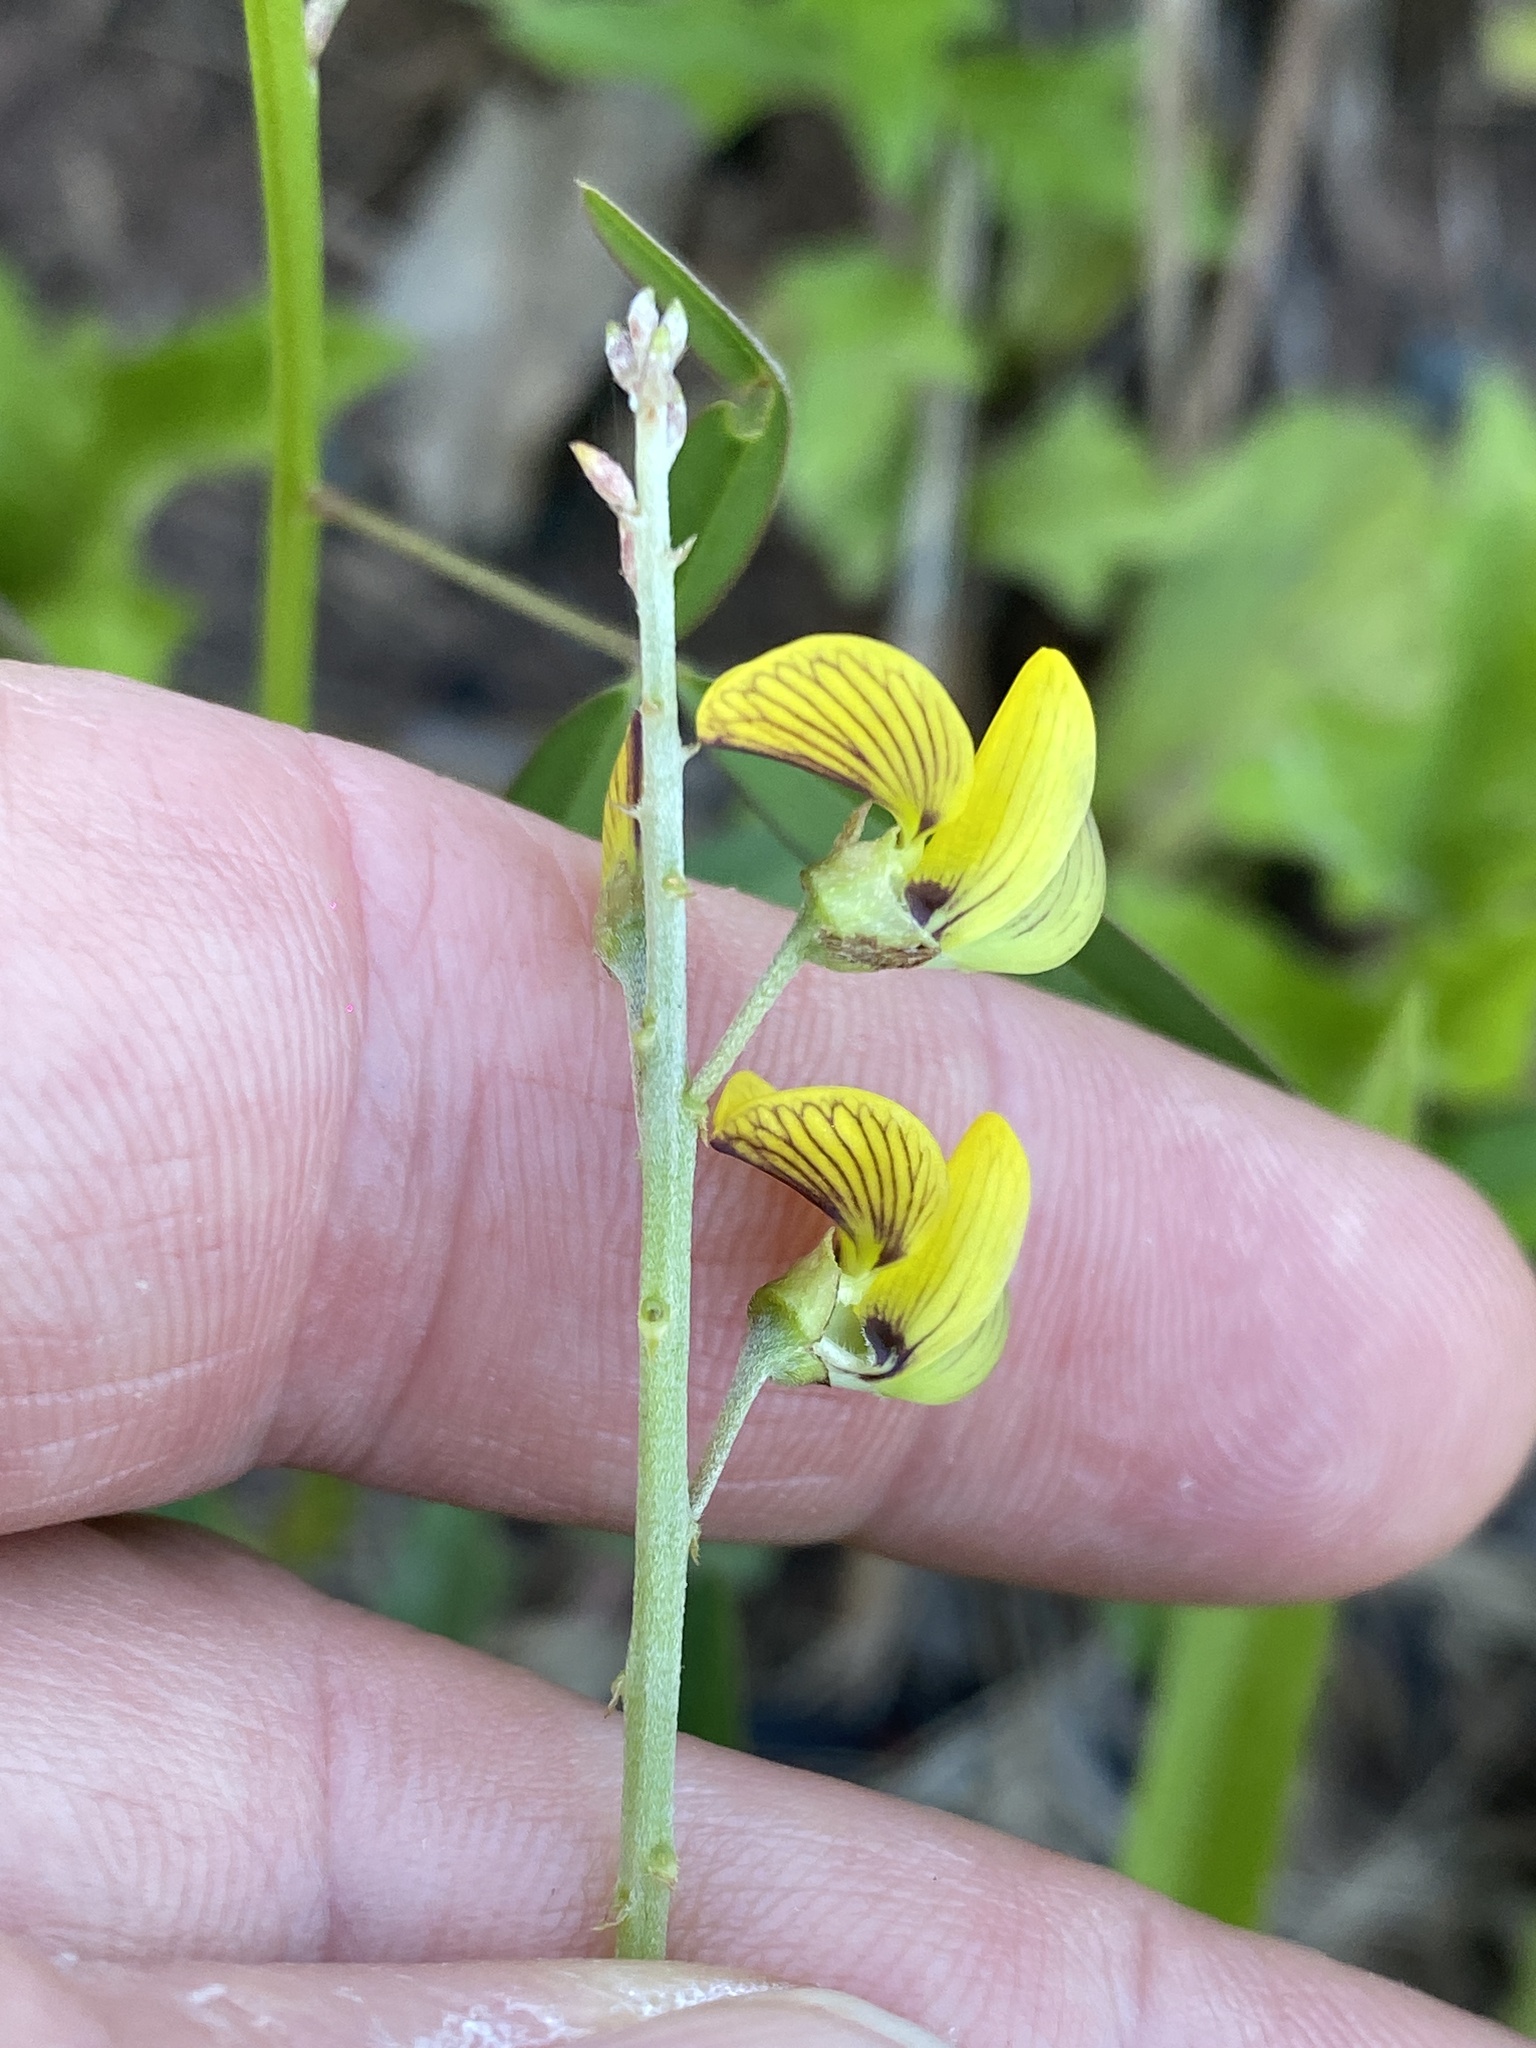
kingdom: Plantae
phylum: Tracheophyta
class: Magnoliopsida
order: Fabales
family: Fabaceae
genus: Crotalaria
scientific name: Crotalaria lanceolata
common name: Lanceleaf rattlebox
